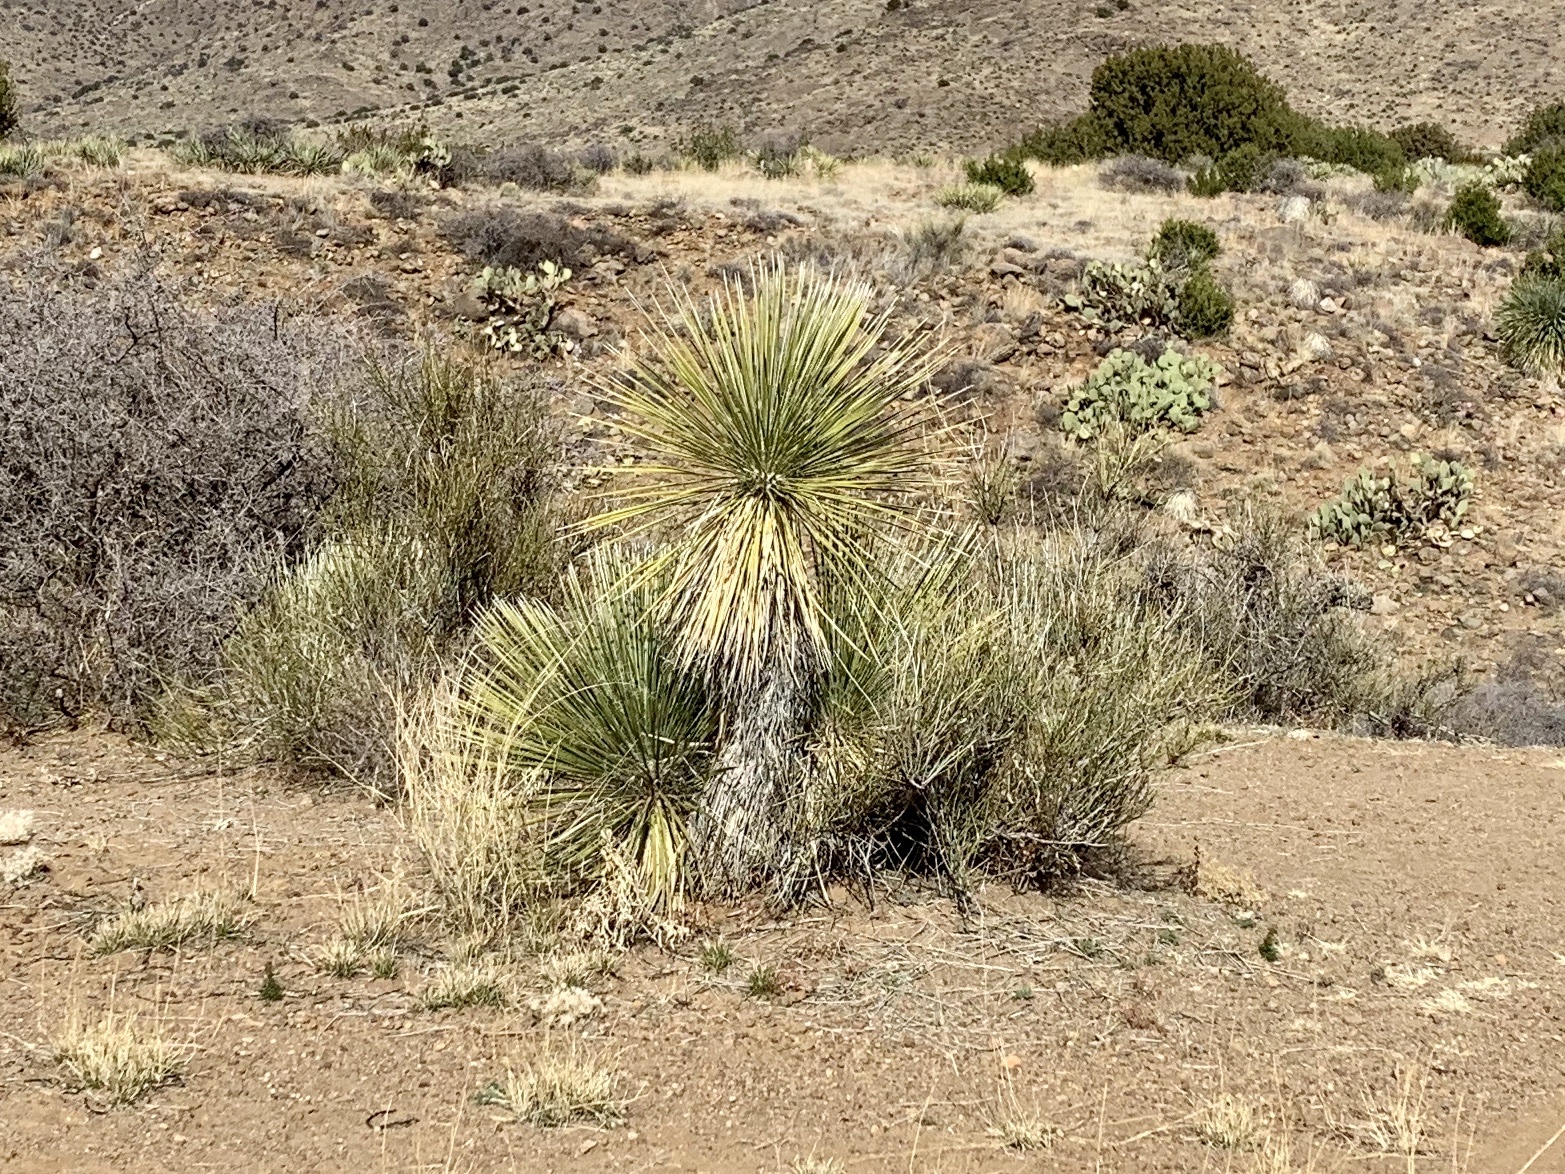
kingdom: Plantae
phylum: Tracheophyta
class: Liliopsida
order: Asparagales
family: Asparagaceae
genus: Yucca
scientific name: Yucca elata
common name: Palmella
